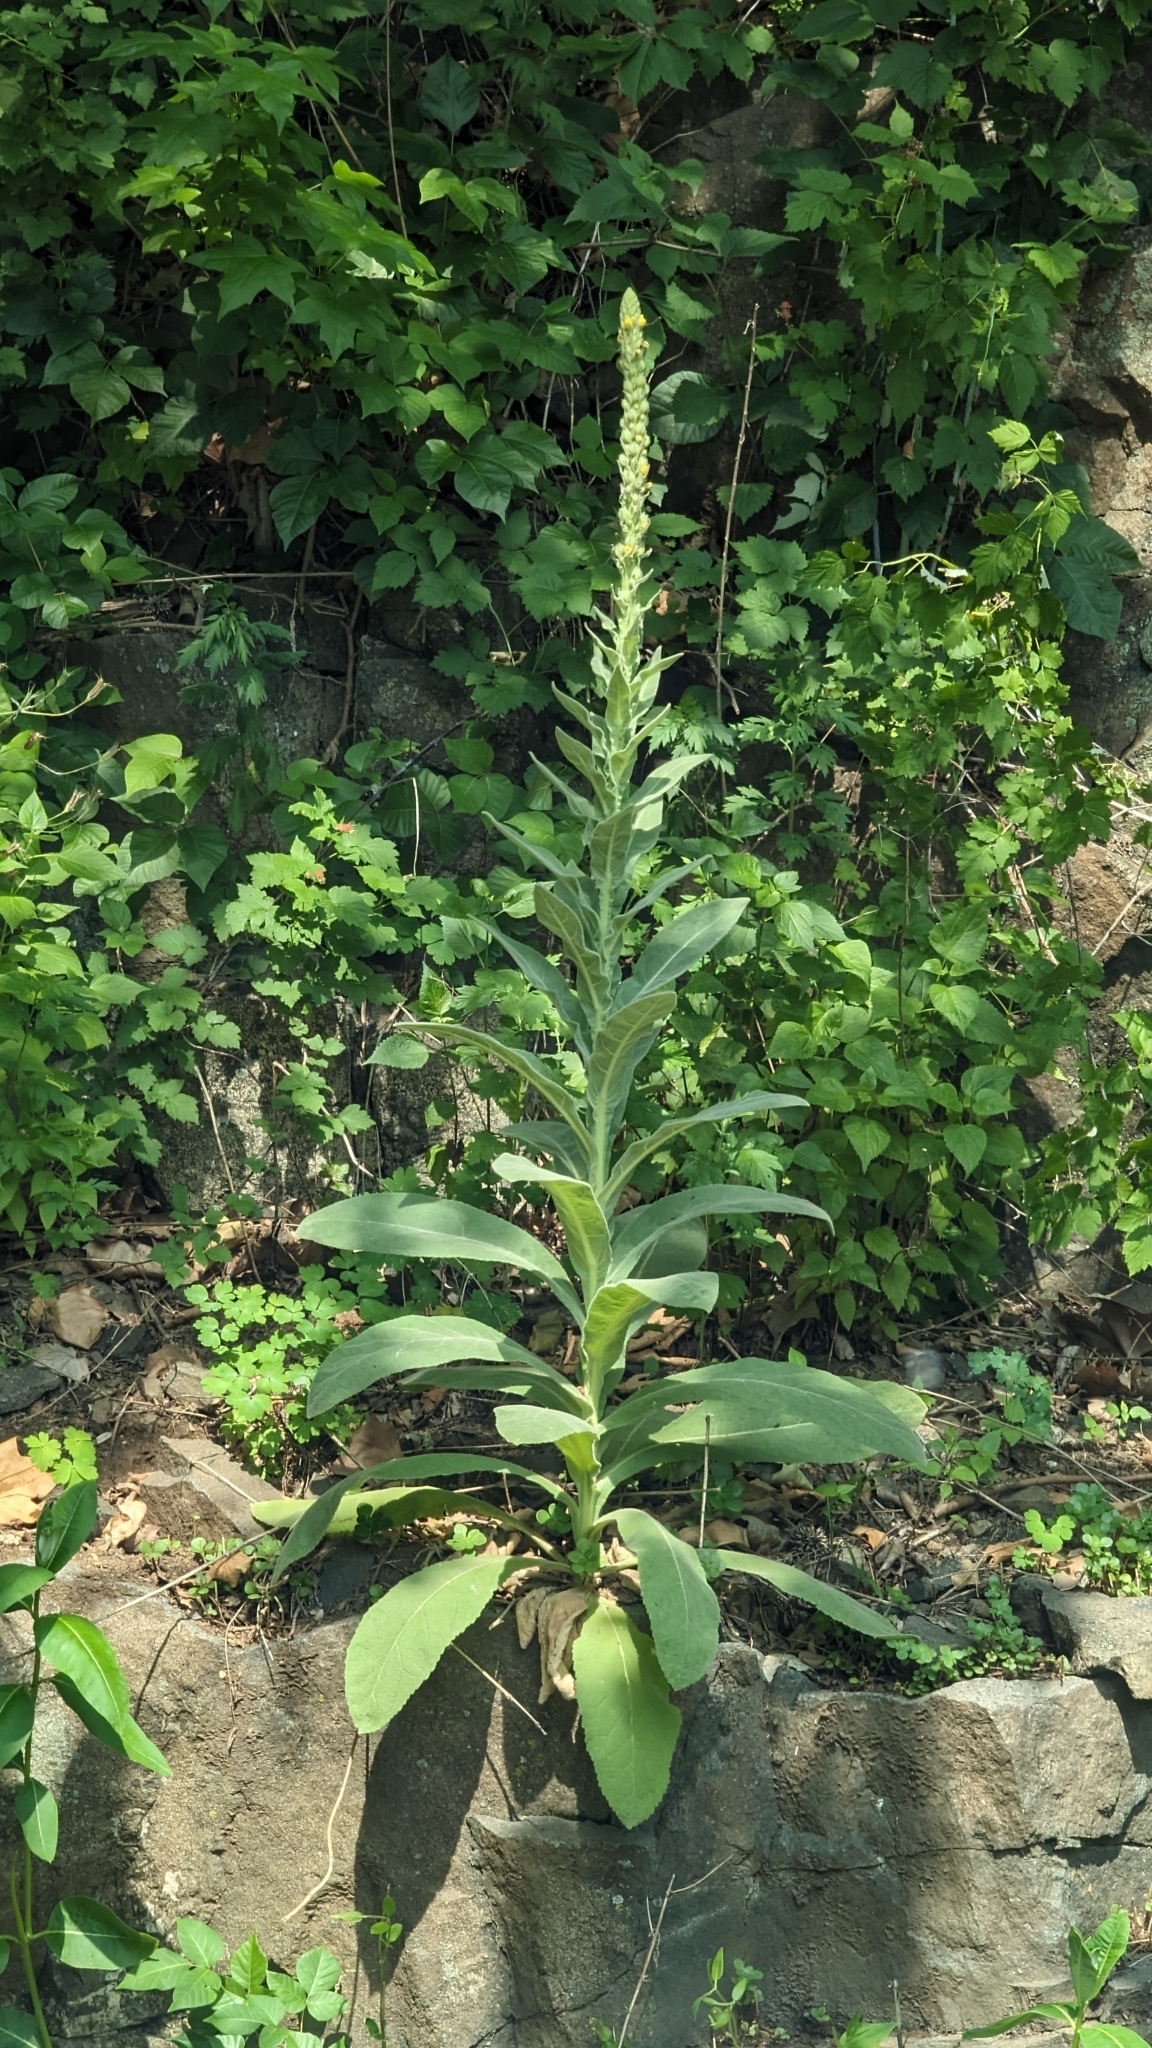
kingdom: Plantae
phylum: Tracheophyta
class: Magnoliopsida
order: Lamiales
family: Scrophulariaceae
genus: Verbascum
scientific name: Verbascum thapsus
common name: Common mullein
